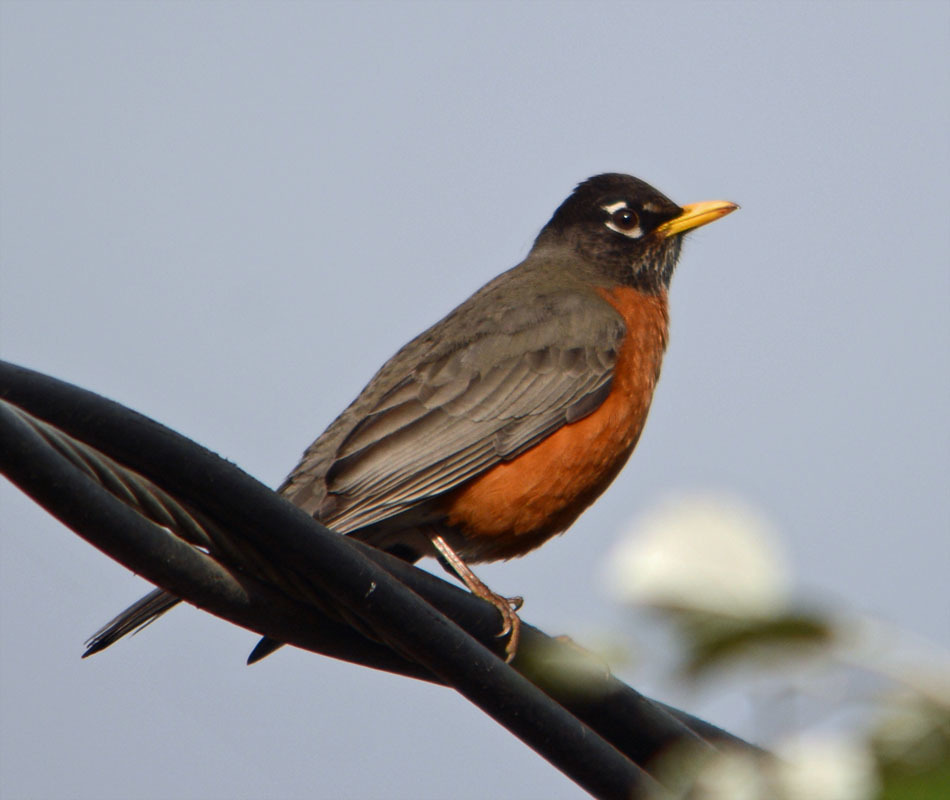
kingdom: Animalia
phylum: Chordata
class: Aves
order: Passeriformes
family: Turdidae
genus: Turdus
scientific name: Turdus migratorius
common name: American robin
